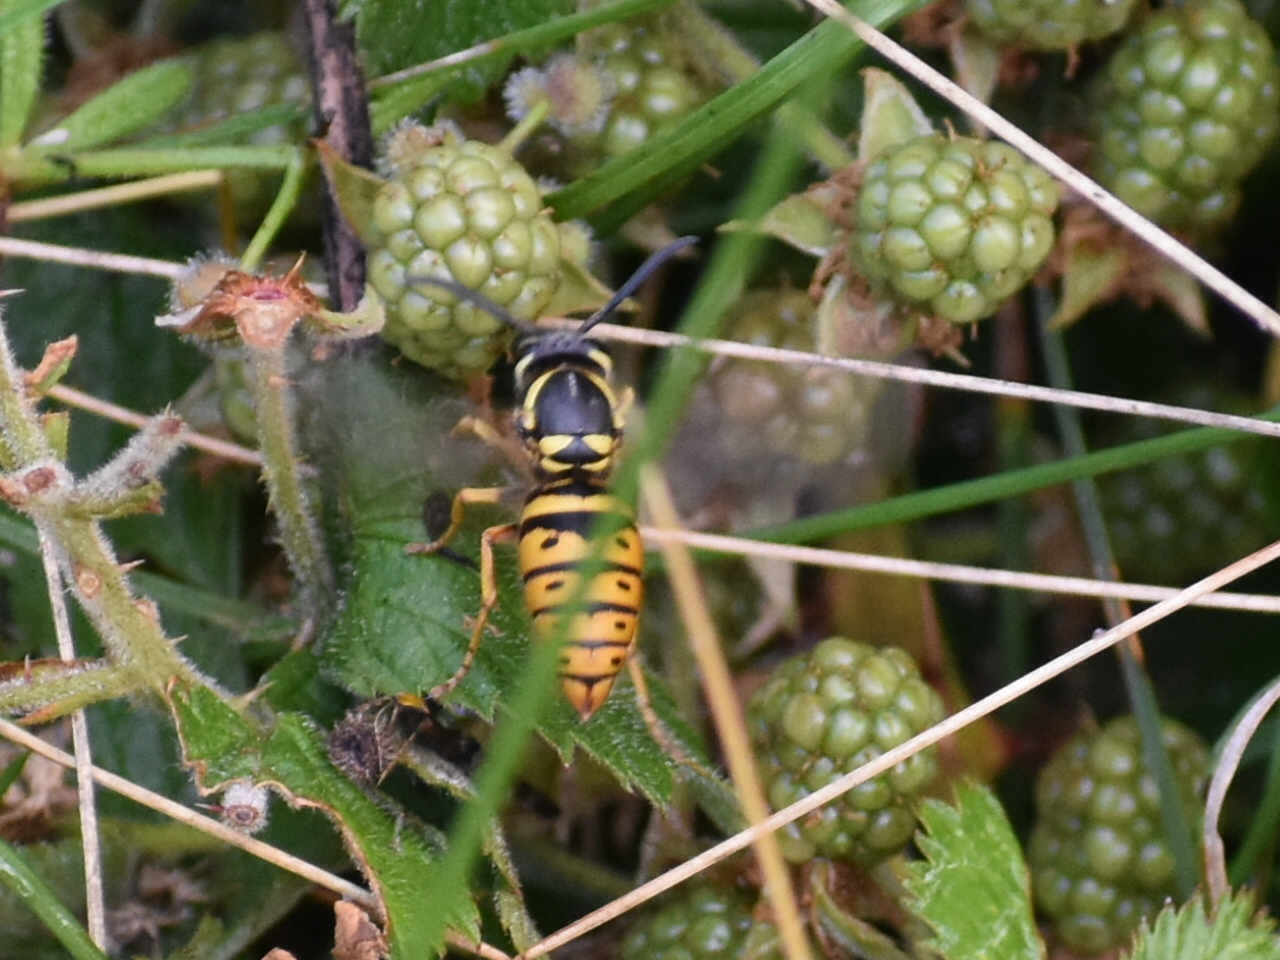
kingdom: Animalia
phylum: Arthropoda
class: Insecta
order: Hymenoptera
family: Vespidae
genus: Vespula
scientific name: Vespula maculifrons
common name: Eastern yellowjacket
